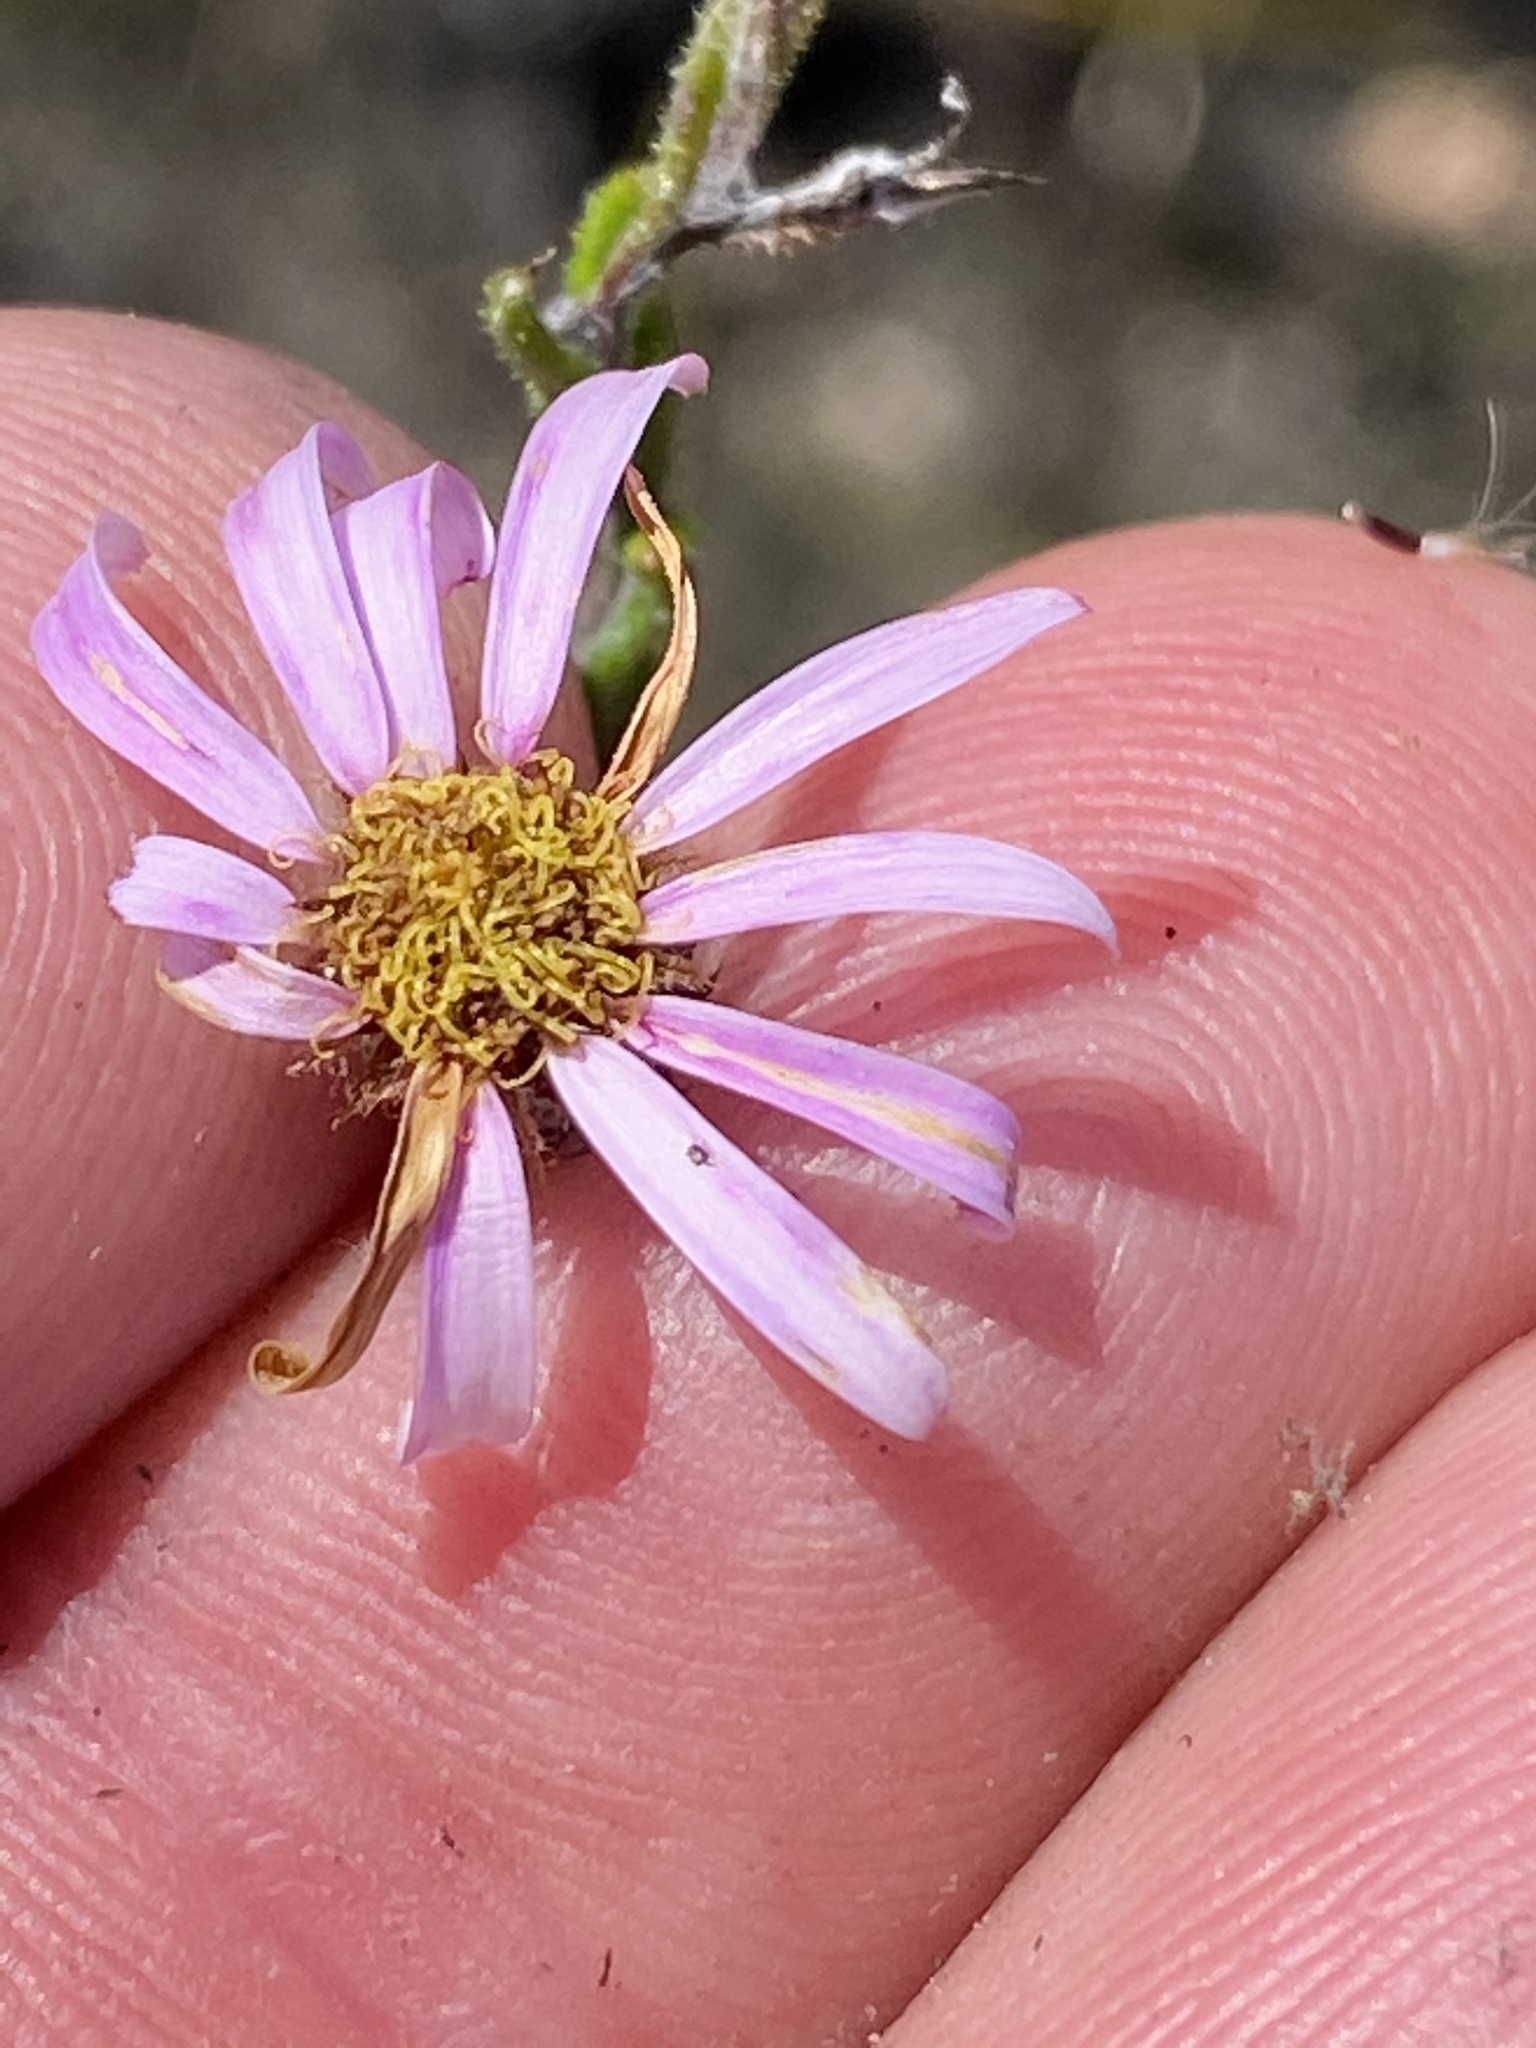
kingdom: Plantae
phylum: Tracheophyta
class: Magnoliopsida
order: Asterales
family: Asteraceae
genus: Athrixia
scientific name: Athrixia heterophylla
